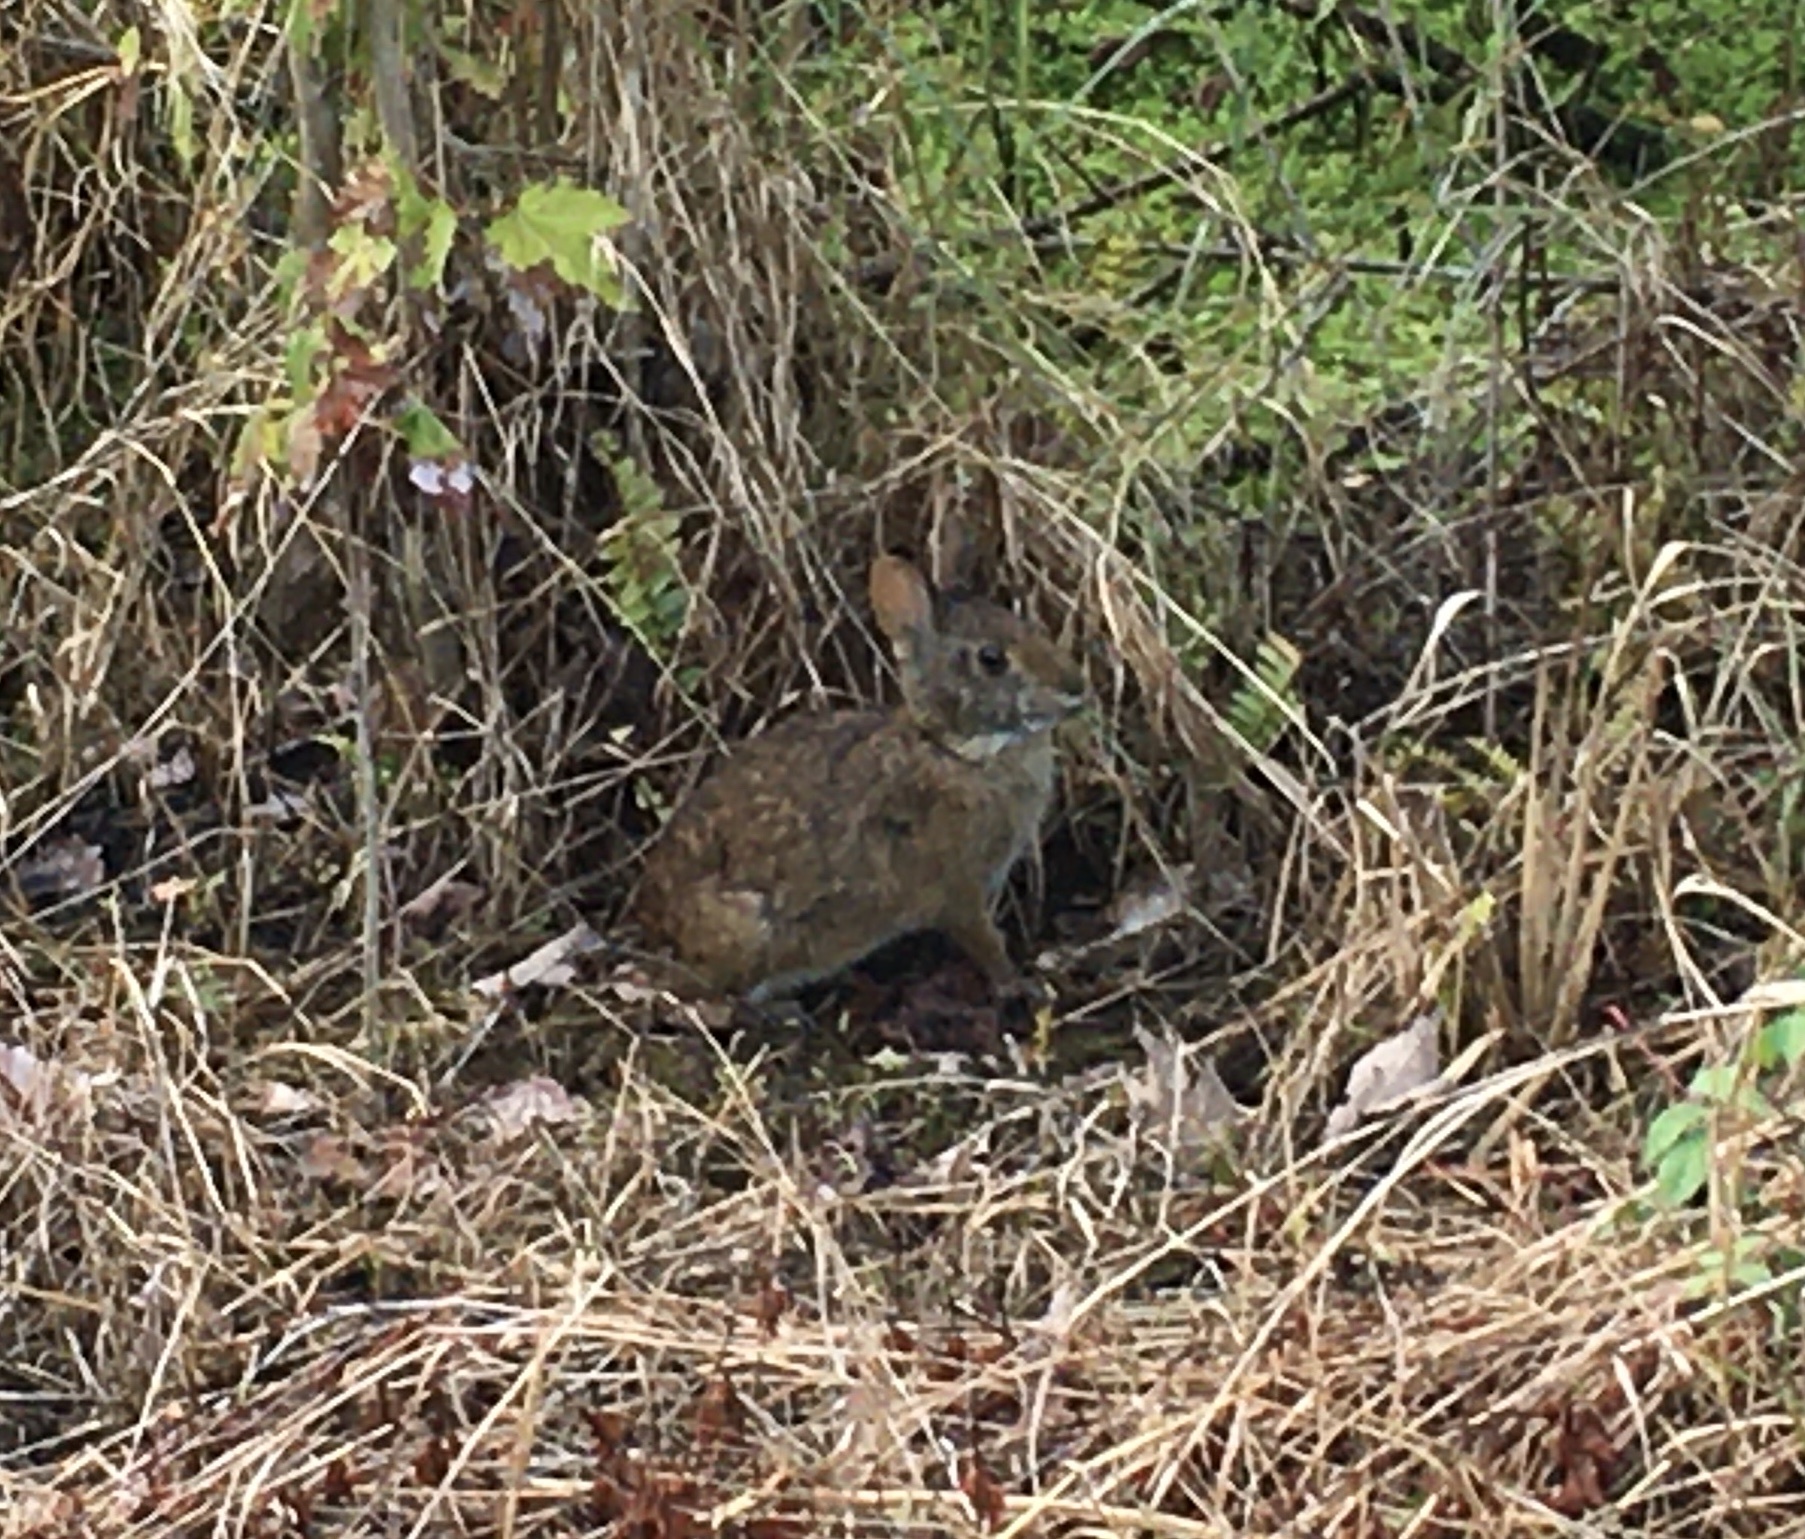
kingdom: Animalia
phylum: Chordata
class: Mammalia
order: Lagomorpha
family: Leporidae
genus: Sylvilagus
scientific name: Sylvilagus palustris
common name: Marsh rabbit
